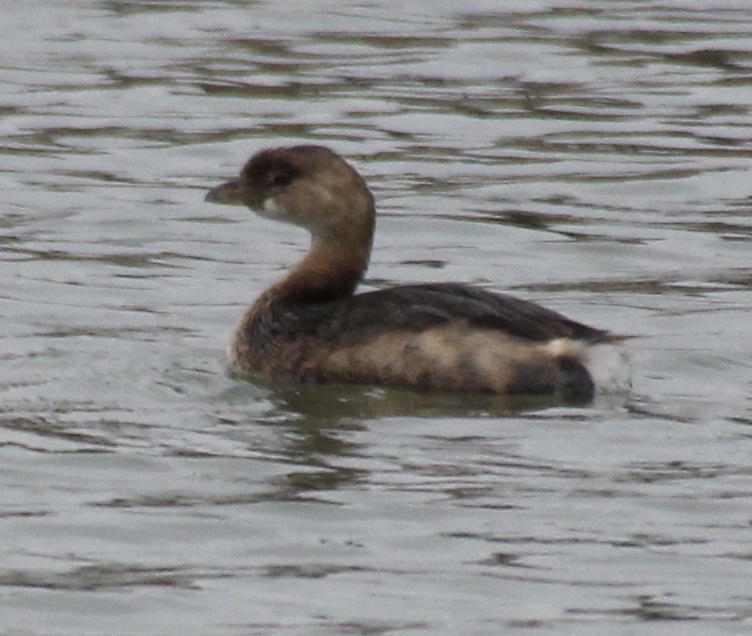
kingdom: Animalia
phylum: Chordata
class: Aves
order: Podicipediformes
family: Podicipedidae
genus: Podilymbus
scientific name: Podilymbus podiceps
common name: Pied-billed grebe
